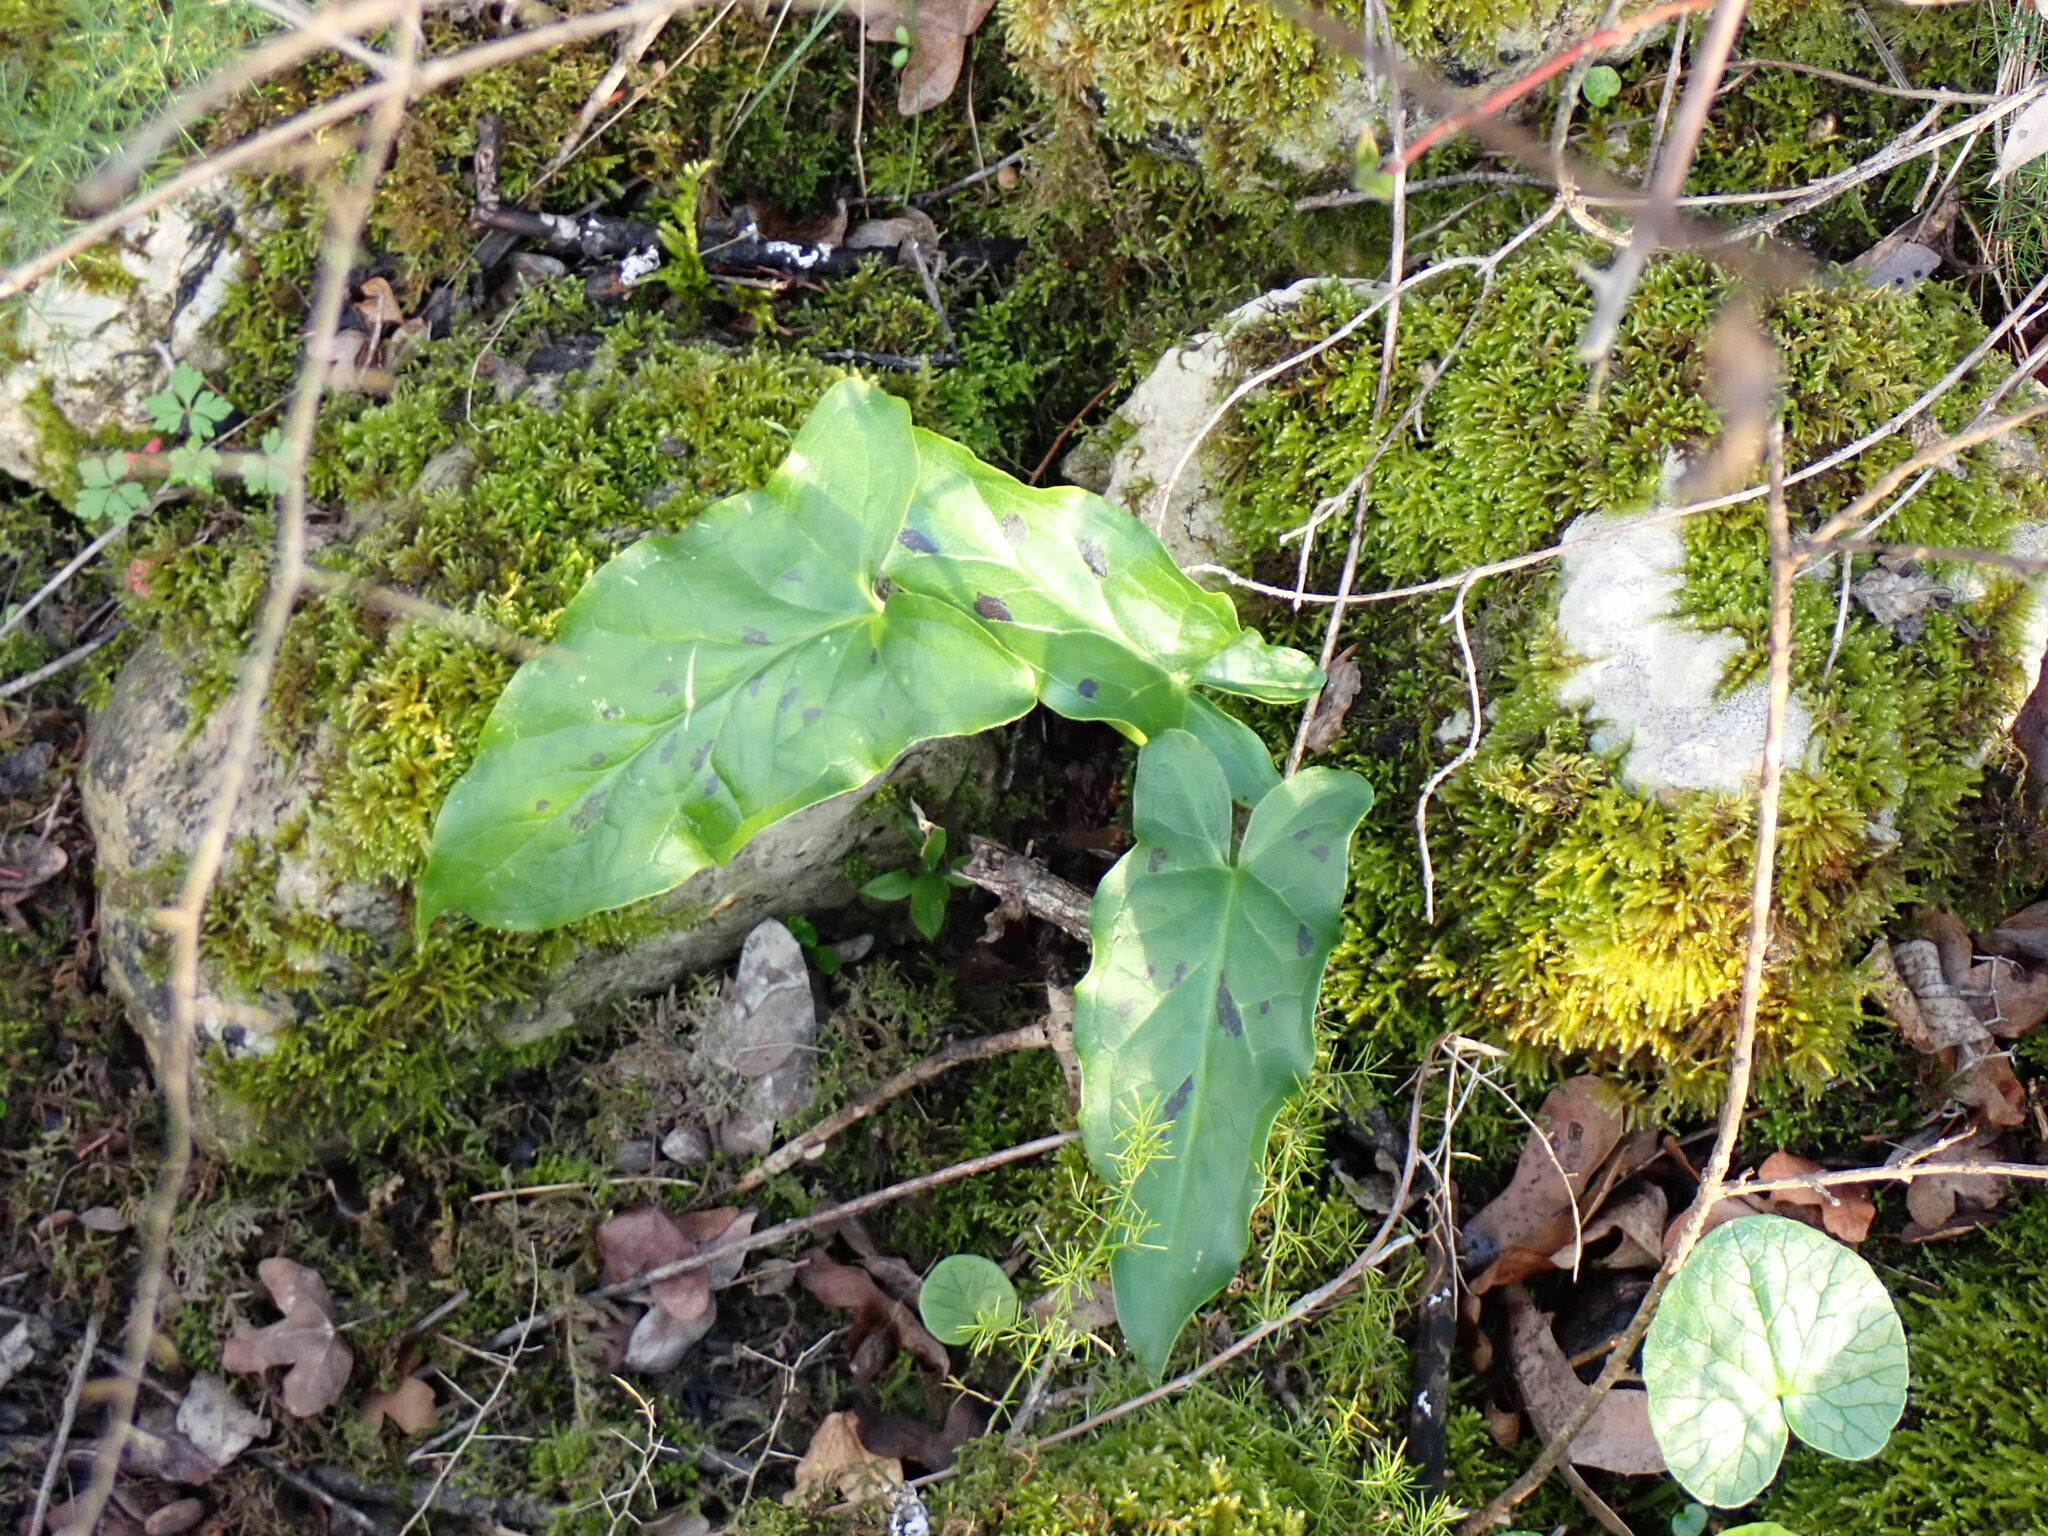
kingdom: Plantae
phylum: Tracheophyta
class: Liliopsida
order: Alismatales
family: Araceae
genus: Arum
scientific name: Arum italicum
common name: Italian lords-and-ladies
